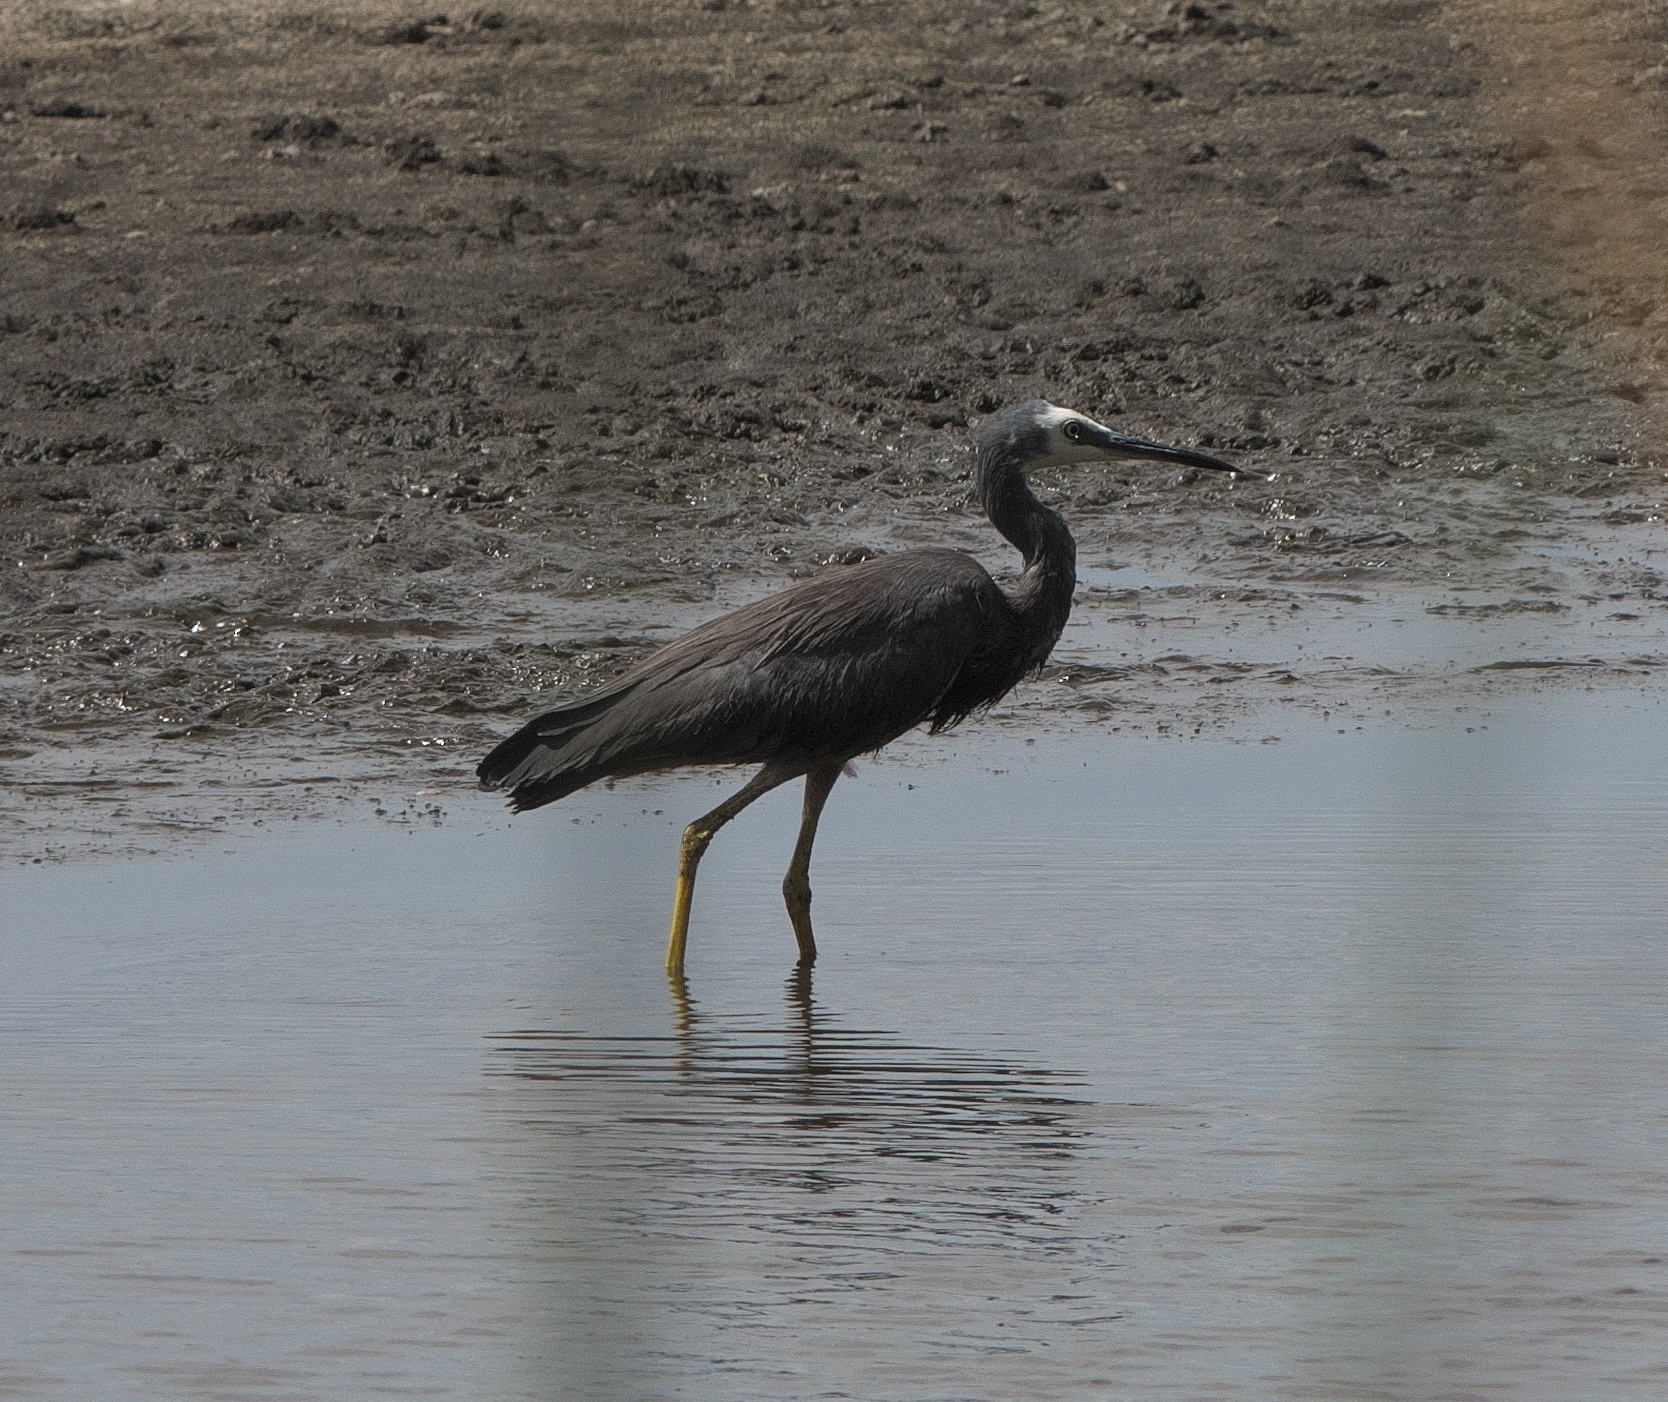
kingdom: Animalia
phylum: Chordata
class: Aves
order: Pelecaniformes
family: Ardeidae
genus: Egretta
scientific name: Egretta novaehollandiae
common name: White-faced heron
